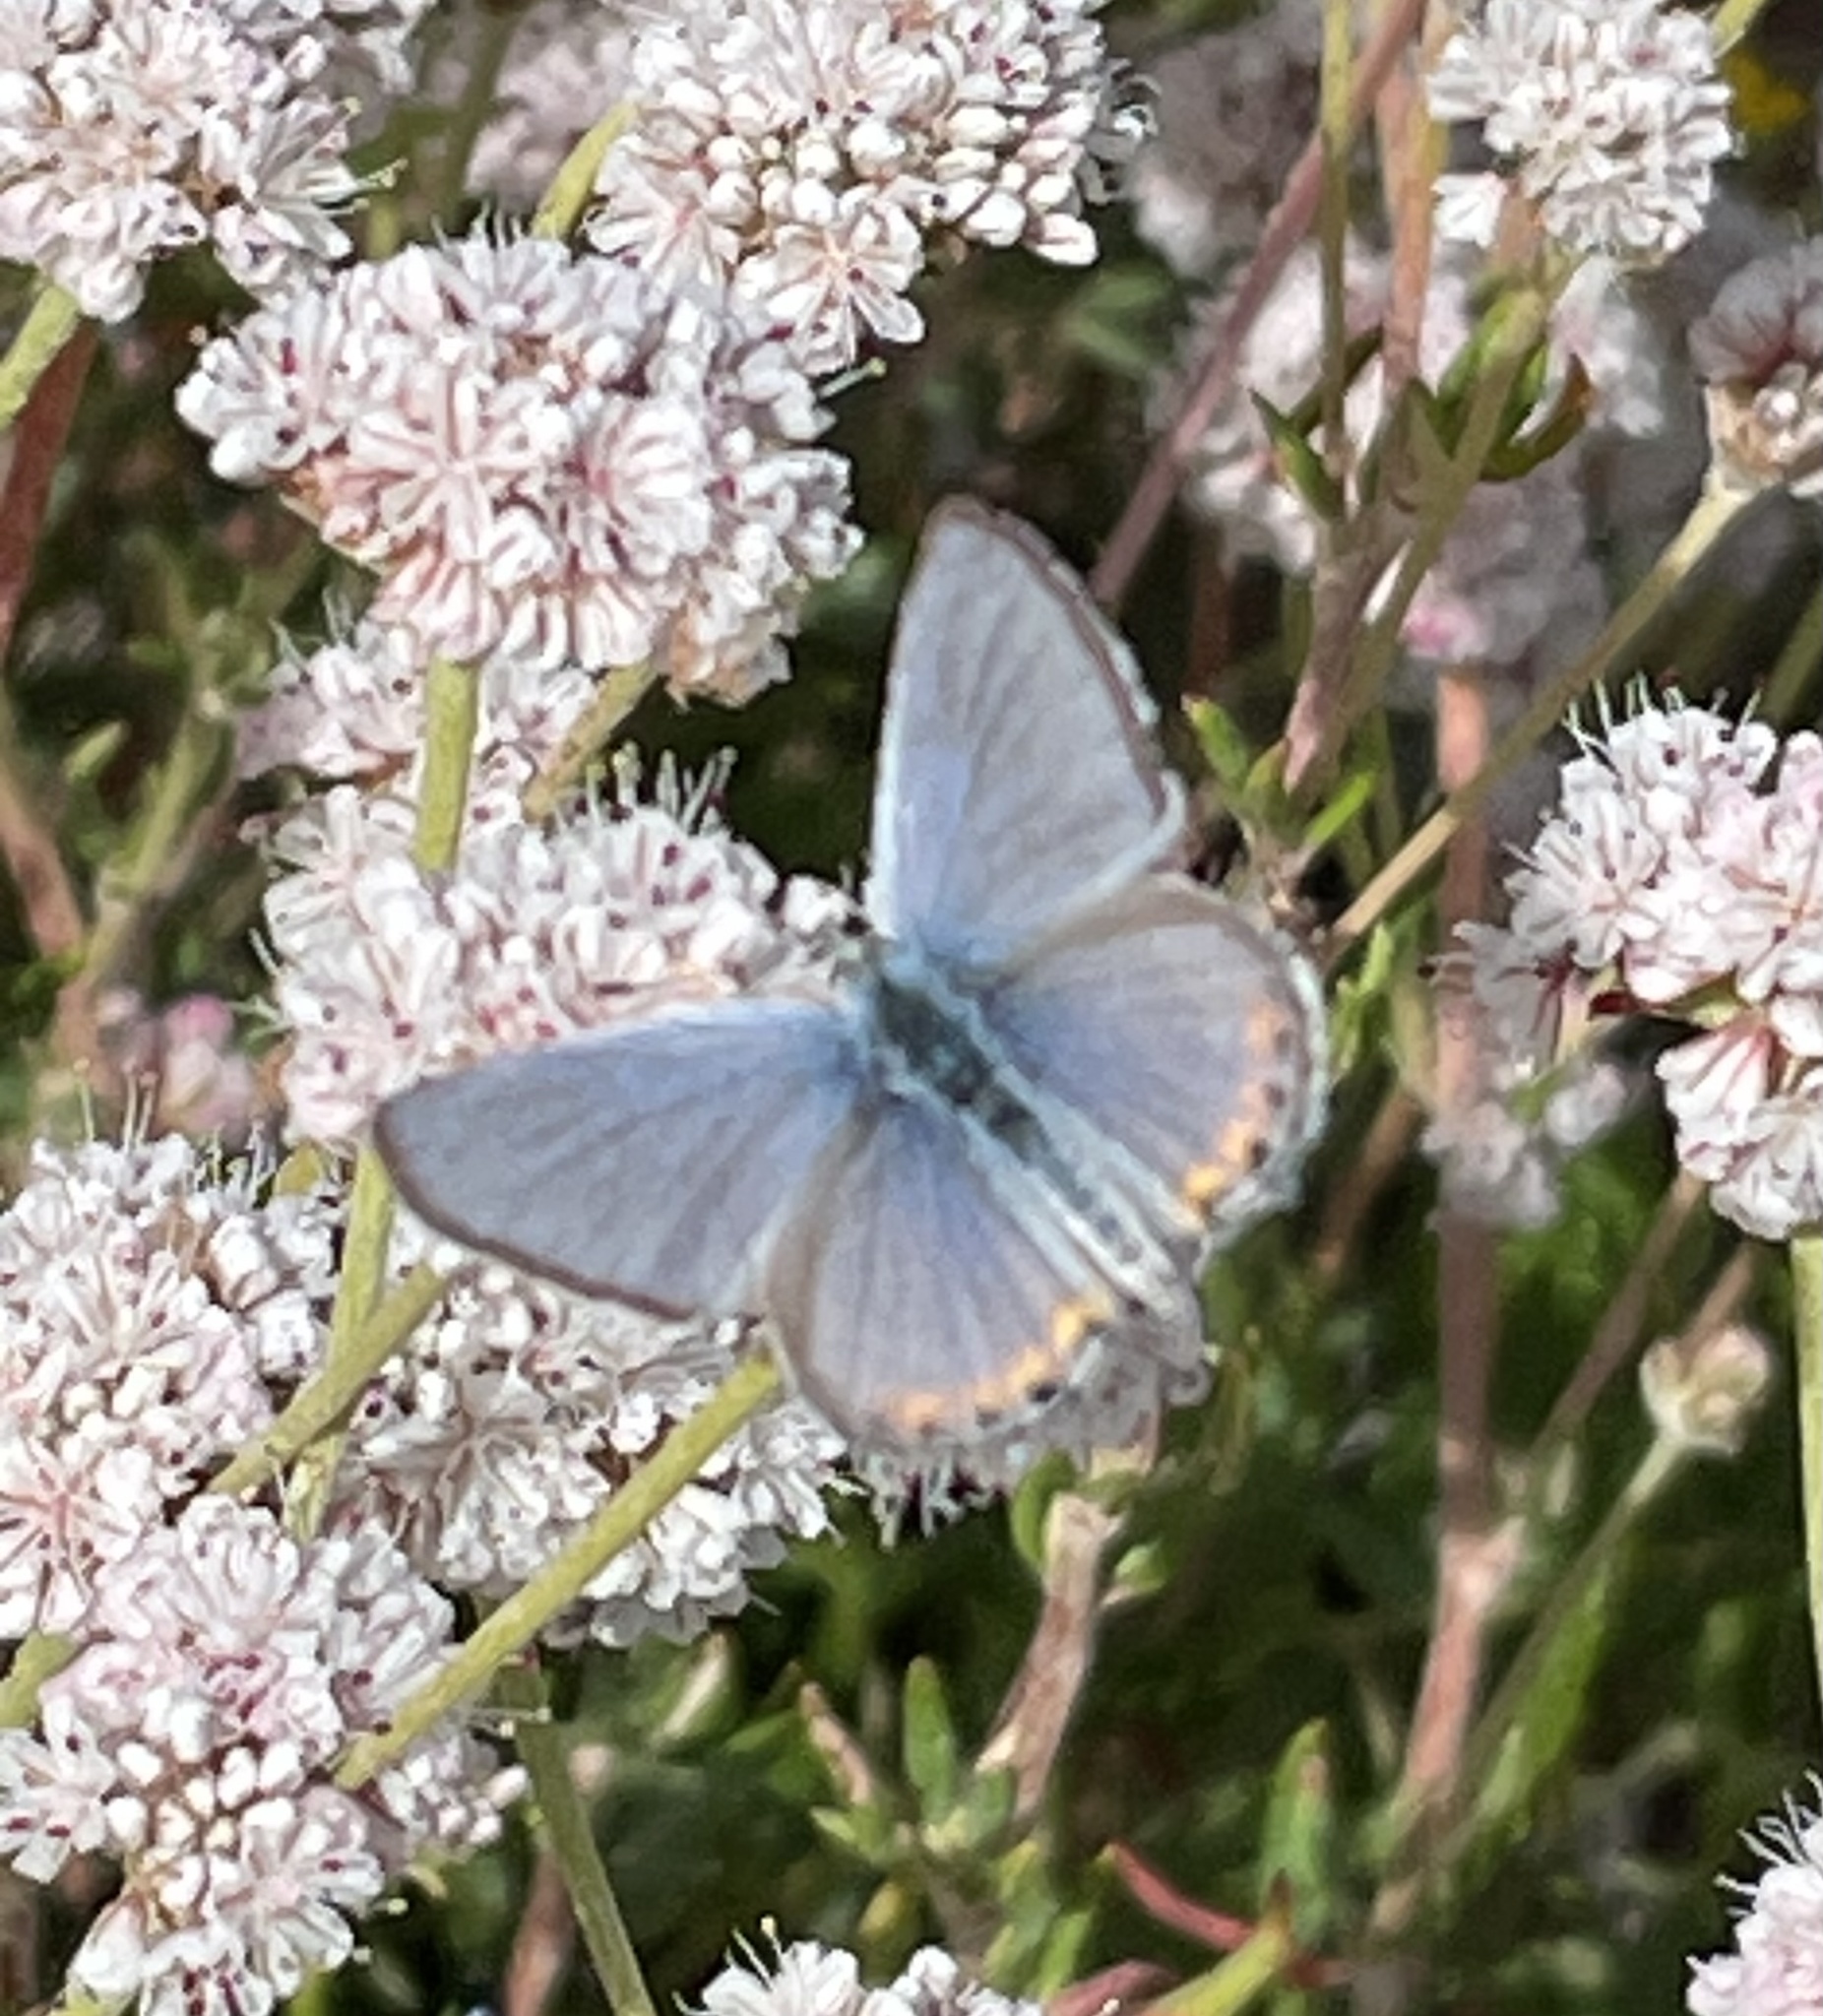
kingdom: Animalia
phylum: Arthropoda
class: Insecta
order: Lepidoptera
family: Lycaenidae
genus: Icaricia
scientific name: Icaricia acmon
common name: Acmon blue
